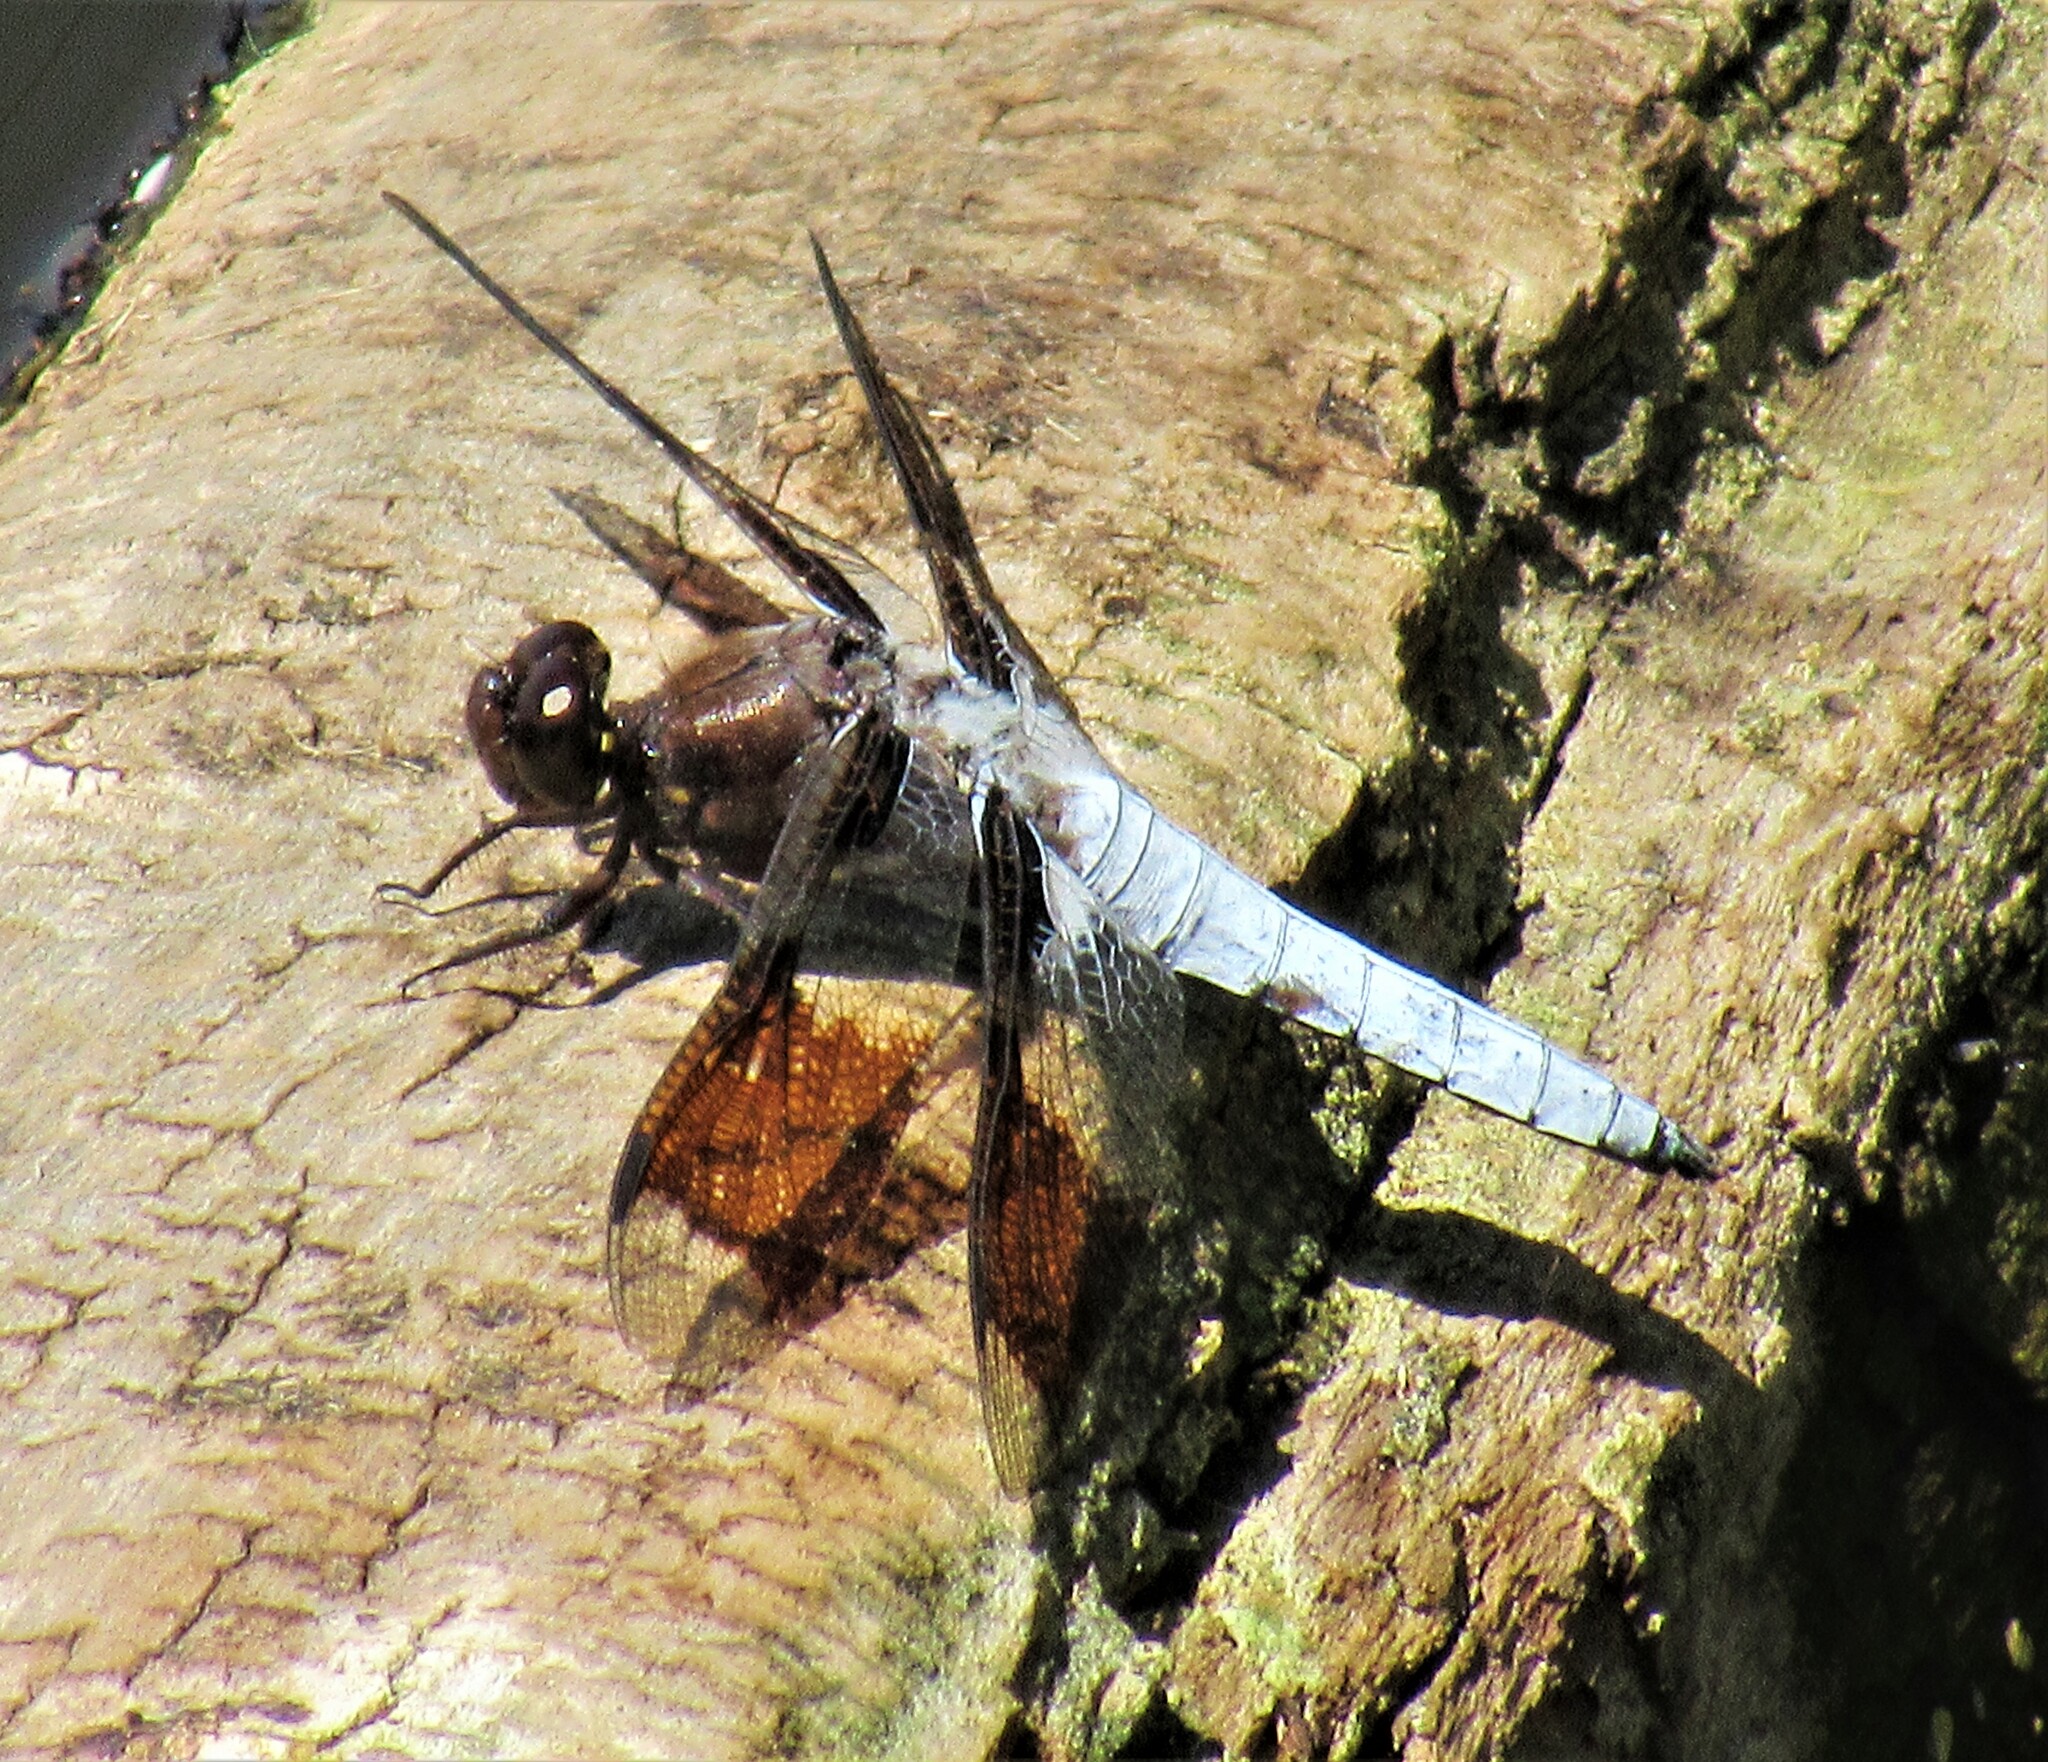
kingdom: Animalia
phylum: Arthropoda
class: Insecta
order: Odonata
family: Libellulidae
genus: Plathemis
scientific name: Plathemis lydia
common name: Common whitetail
